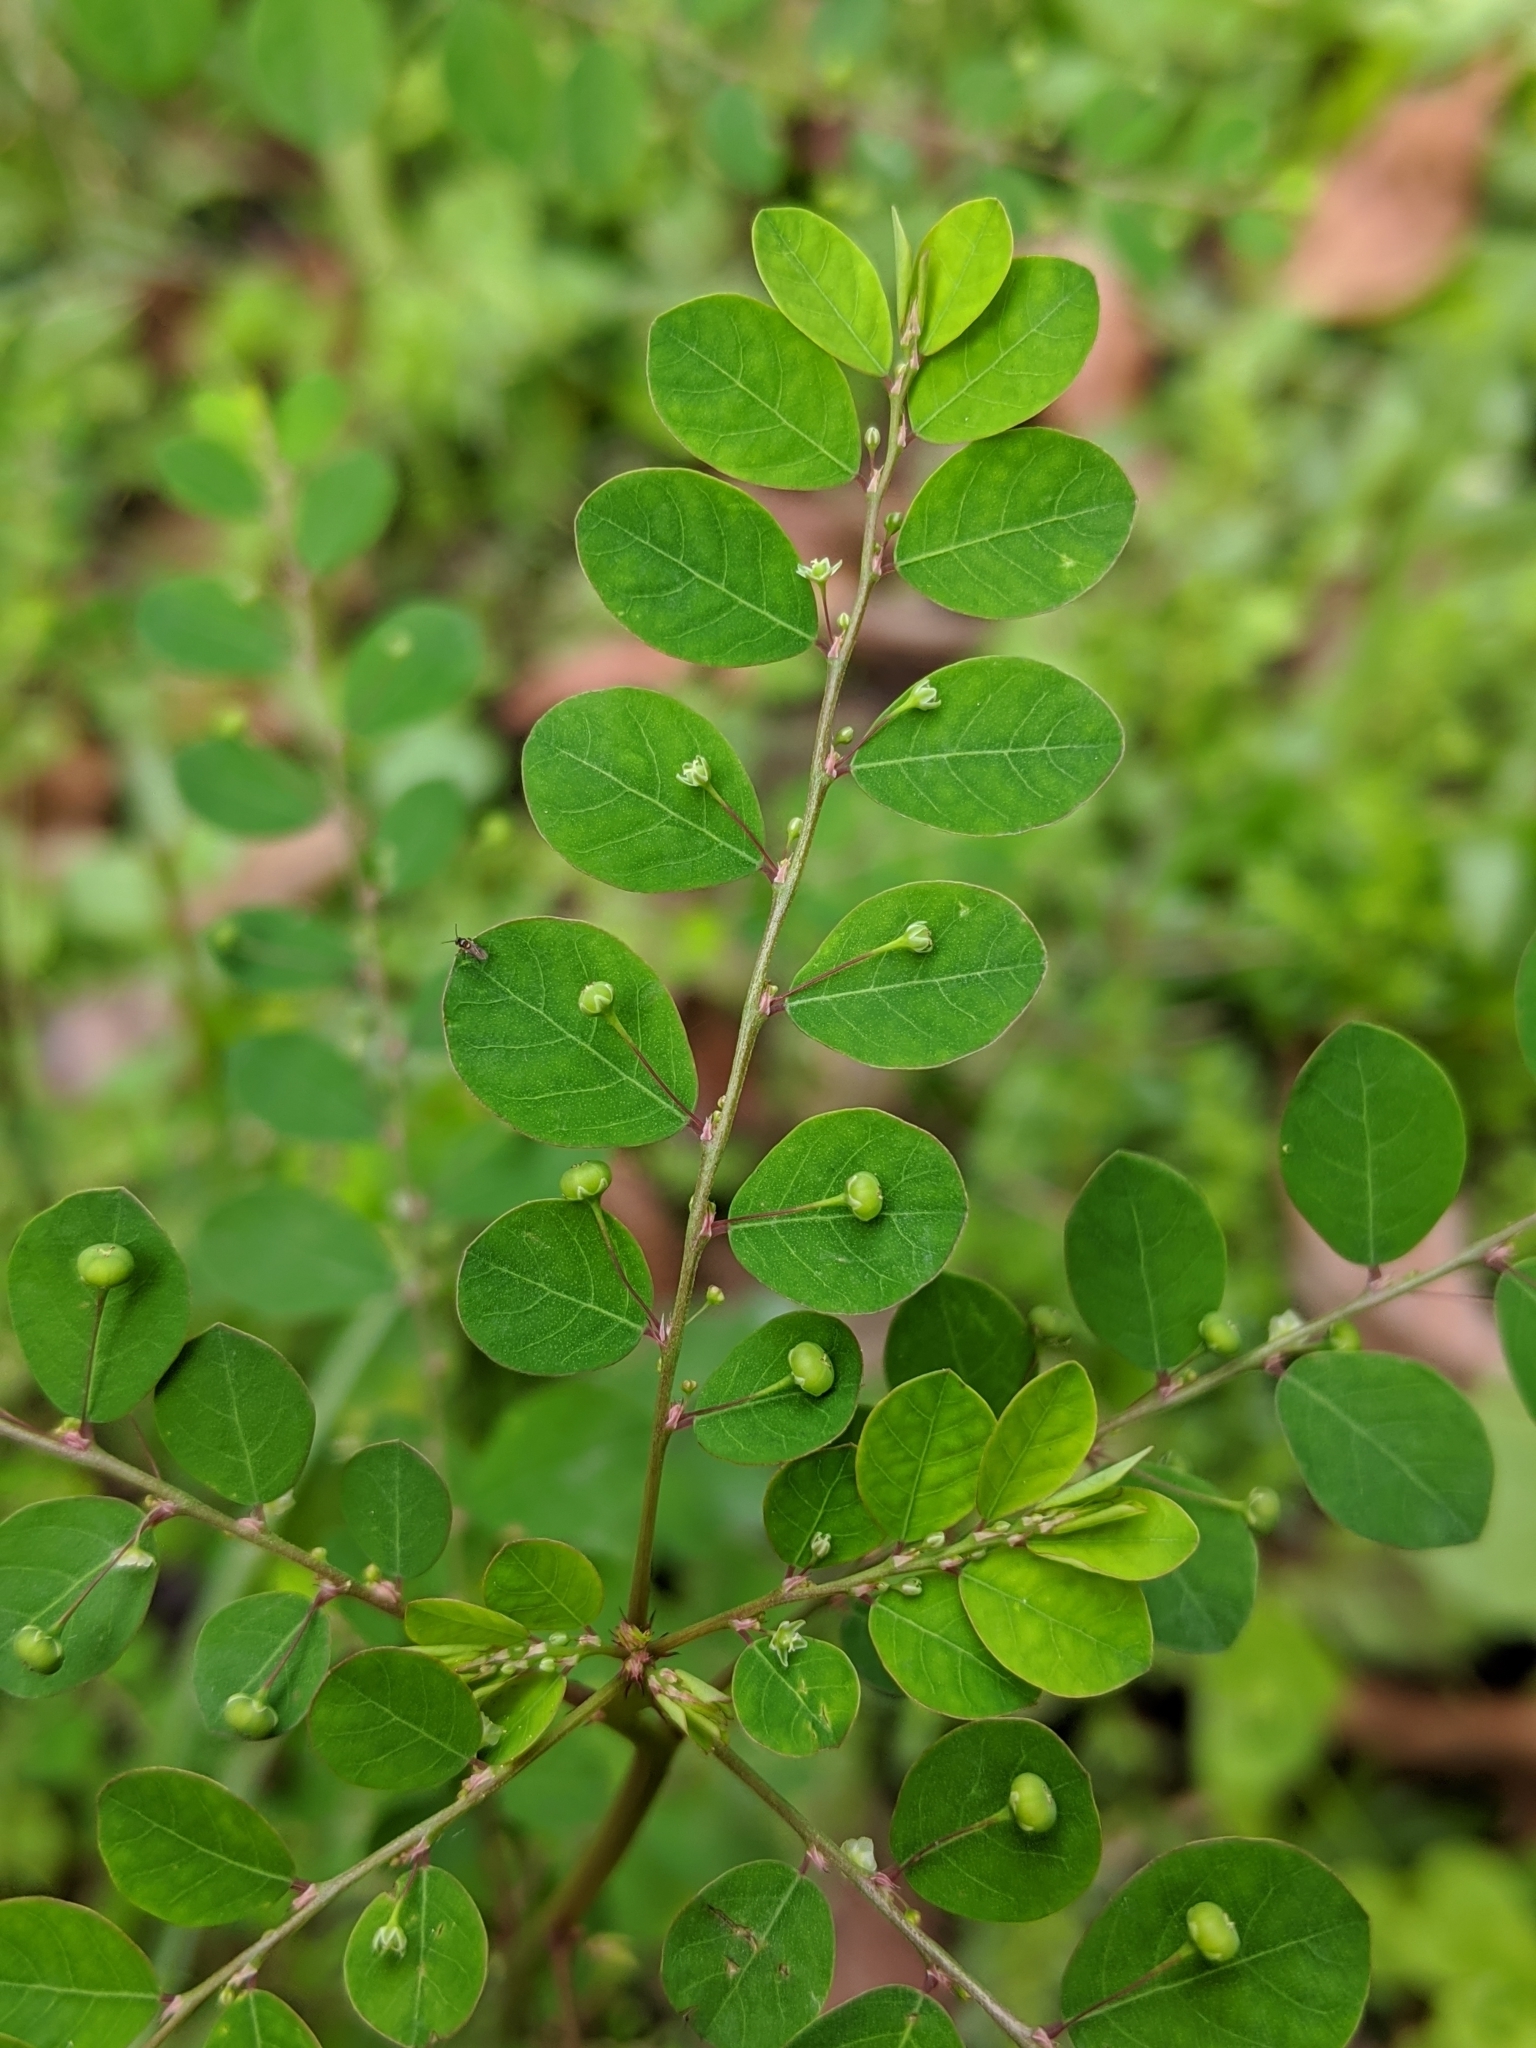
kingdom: Plantae
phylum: Tracheophyta
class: Magnoliopsida
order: Malpighiales
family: Phyllanthaceae
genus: Phyllanthus
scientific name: Phyllanthus tenellus
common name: Mascarene island leaf-flower
